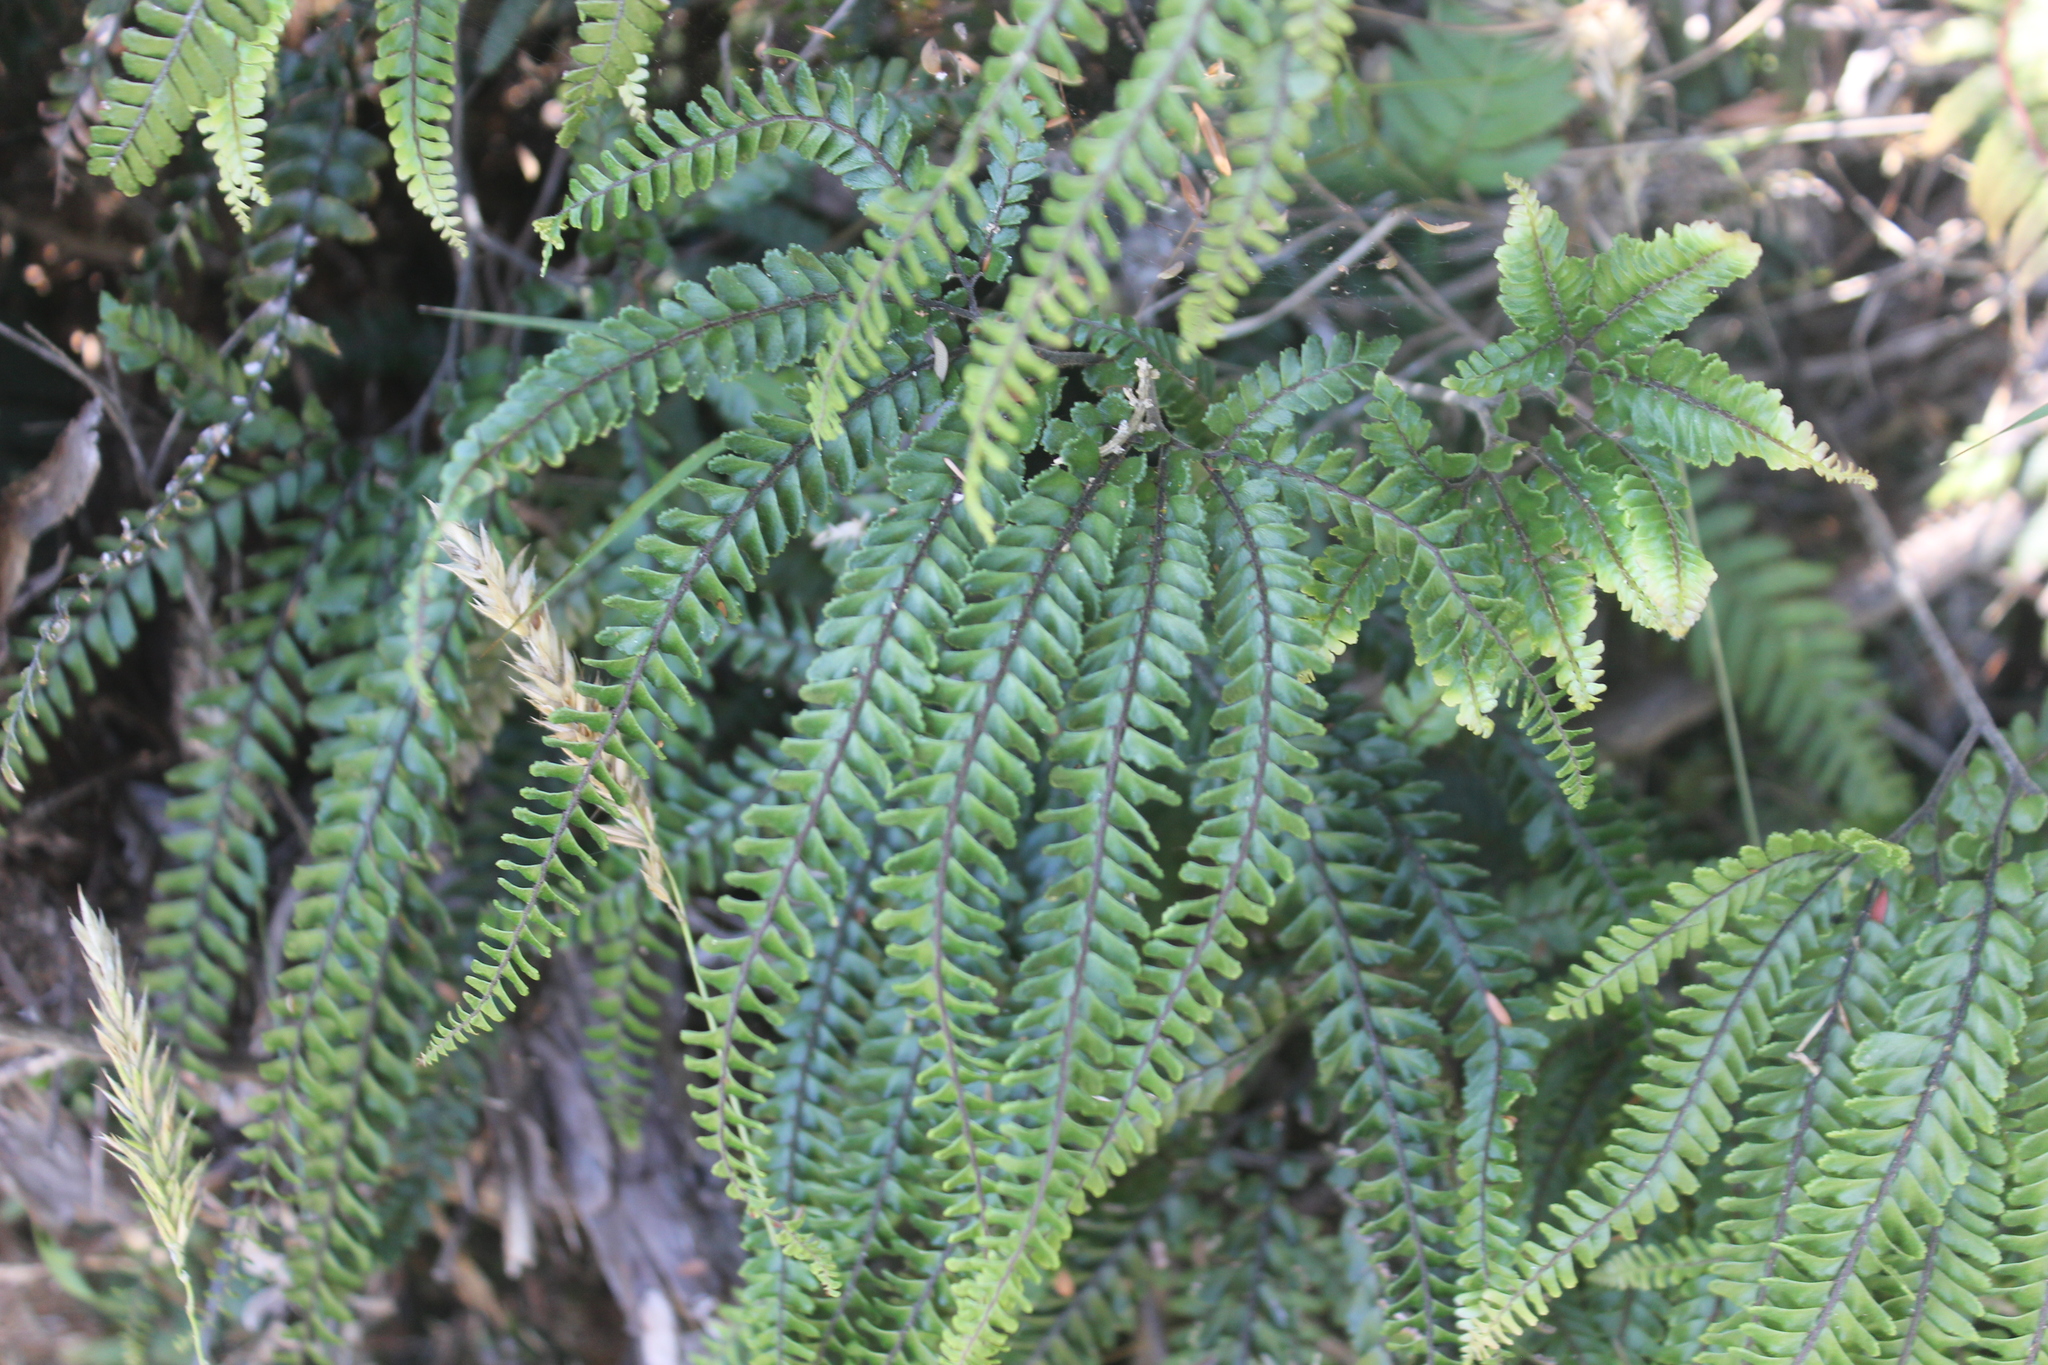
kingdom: Plantae
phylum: Tracheophyta
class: Polypodiopsida
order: Polypodiales
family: Pteridaceae
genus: Adiantum
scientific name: Adiantum hispidulum
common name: Rough maidenhair
